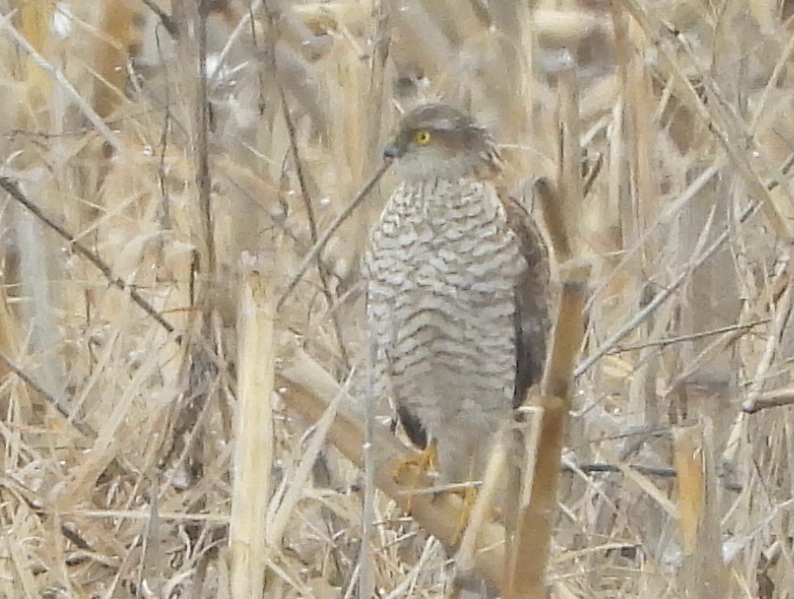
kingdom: Animalia
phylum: Chordata
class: Aves
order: Accipitriformes
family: Accipitridae
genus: Accipiter
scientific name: Accipiter nisus
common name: Eurasian sparrowhawk
